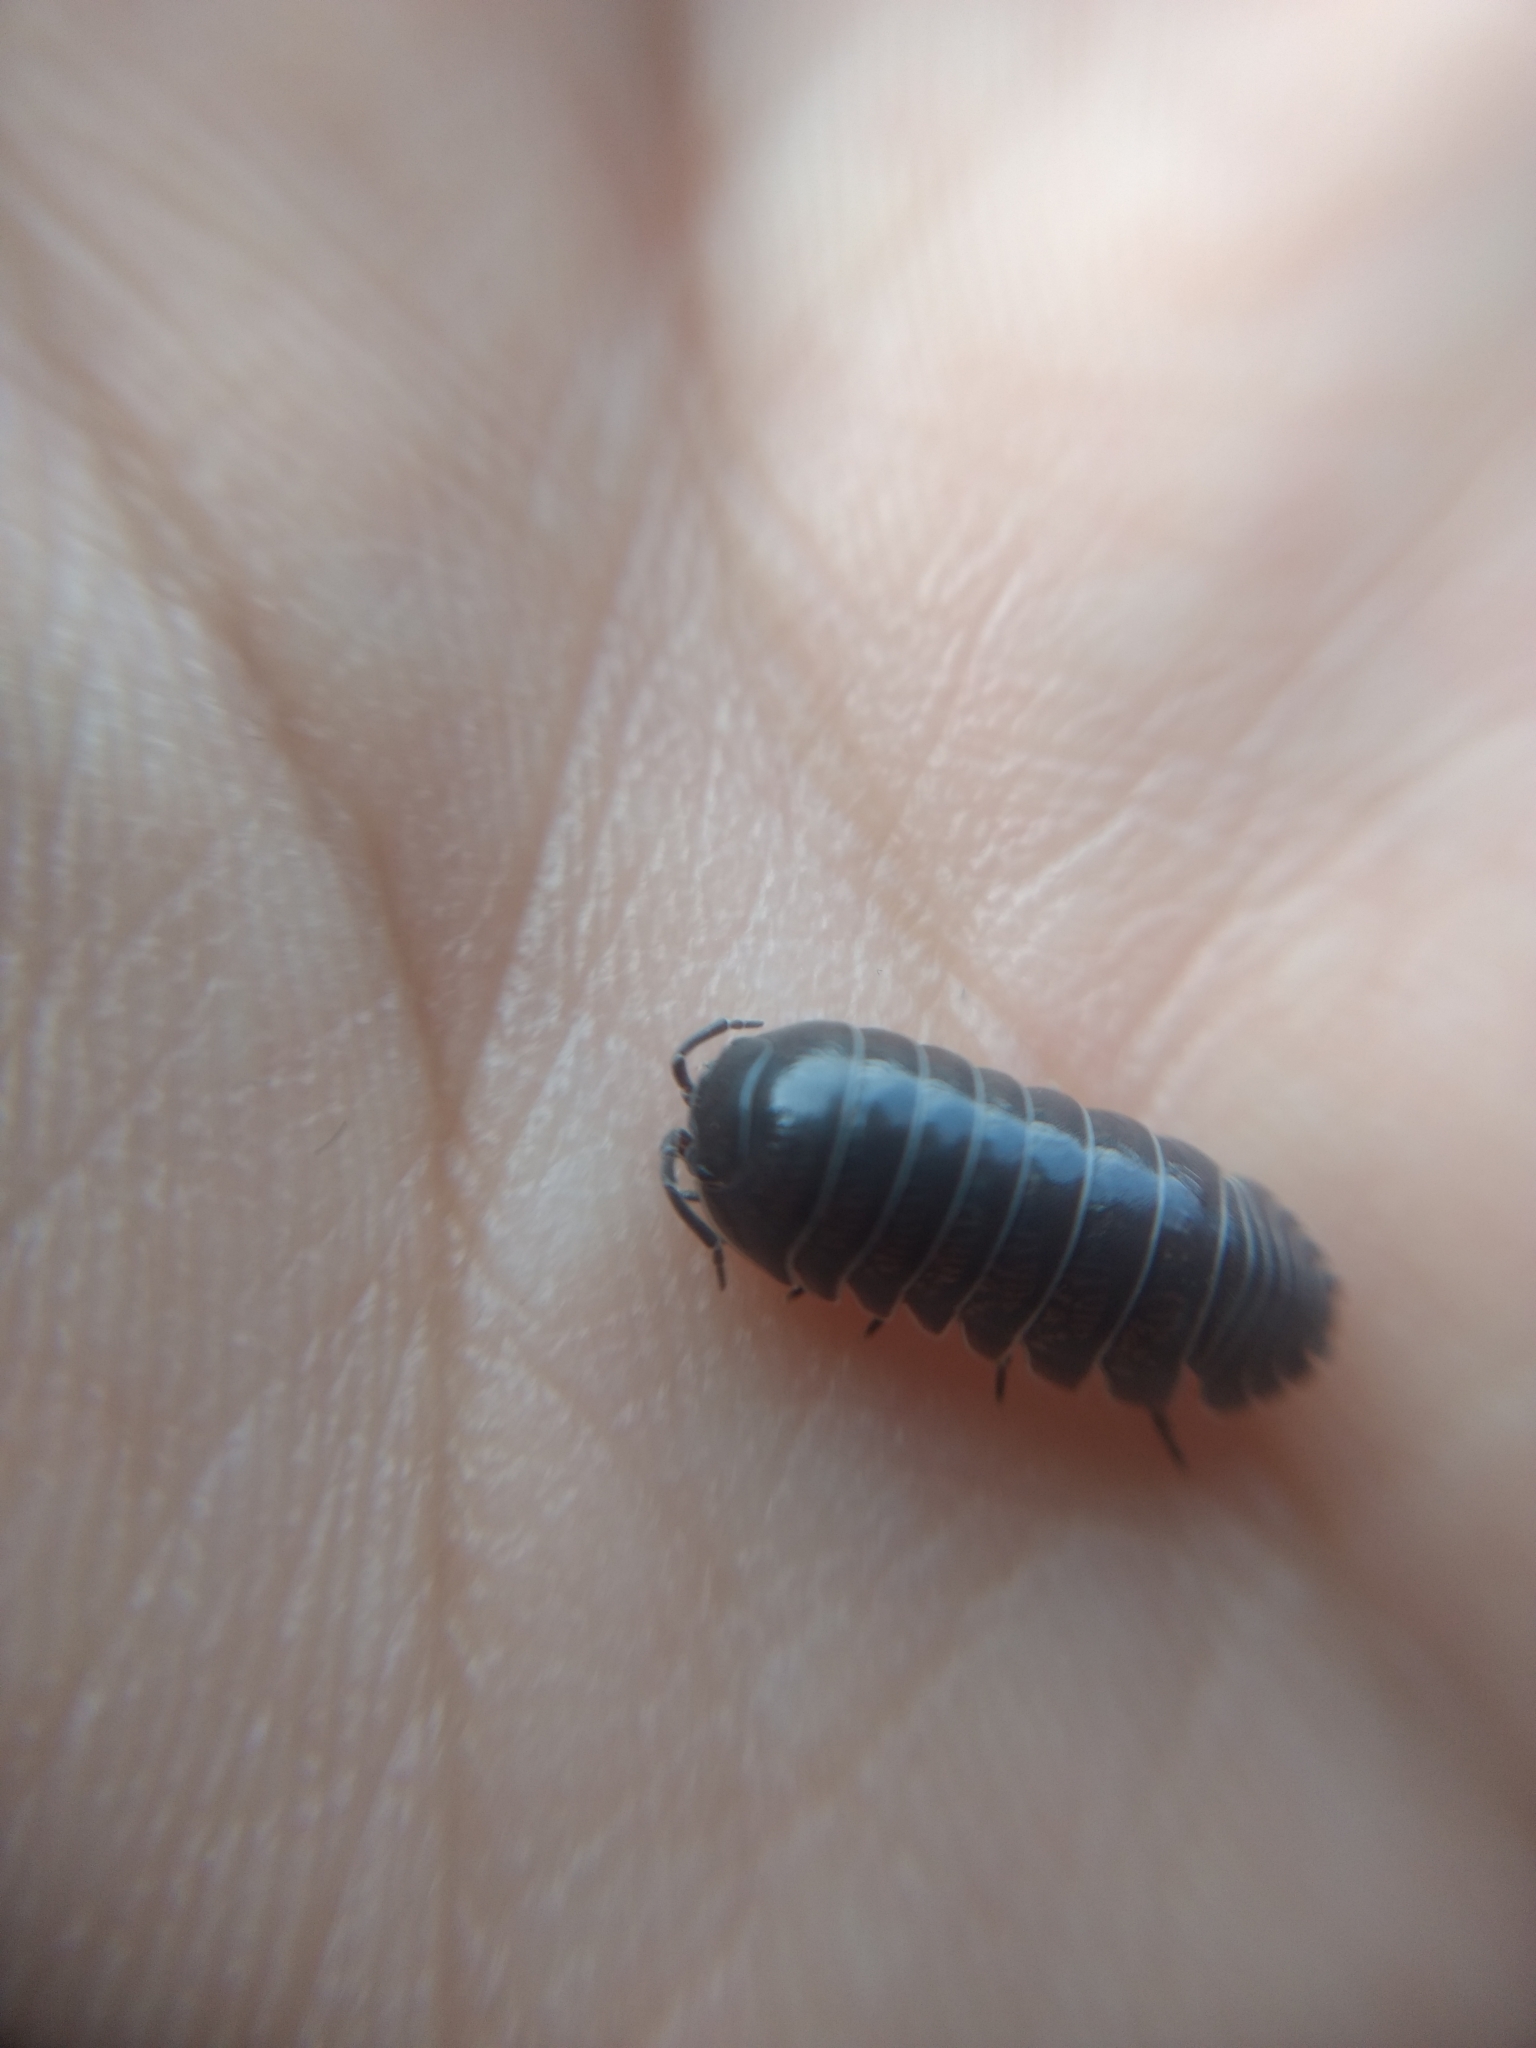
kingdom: Animalia
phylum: Arthropoda
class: Malacostraca
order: Isopoda
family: Armadillidiidae
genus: Armadillidium
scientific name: Armadillidium vulgare
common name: Common pill woodlouse
